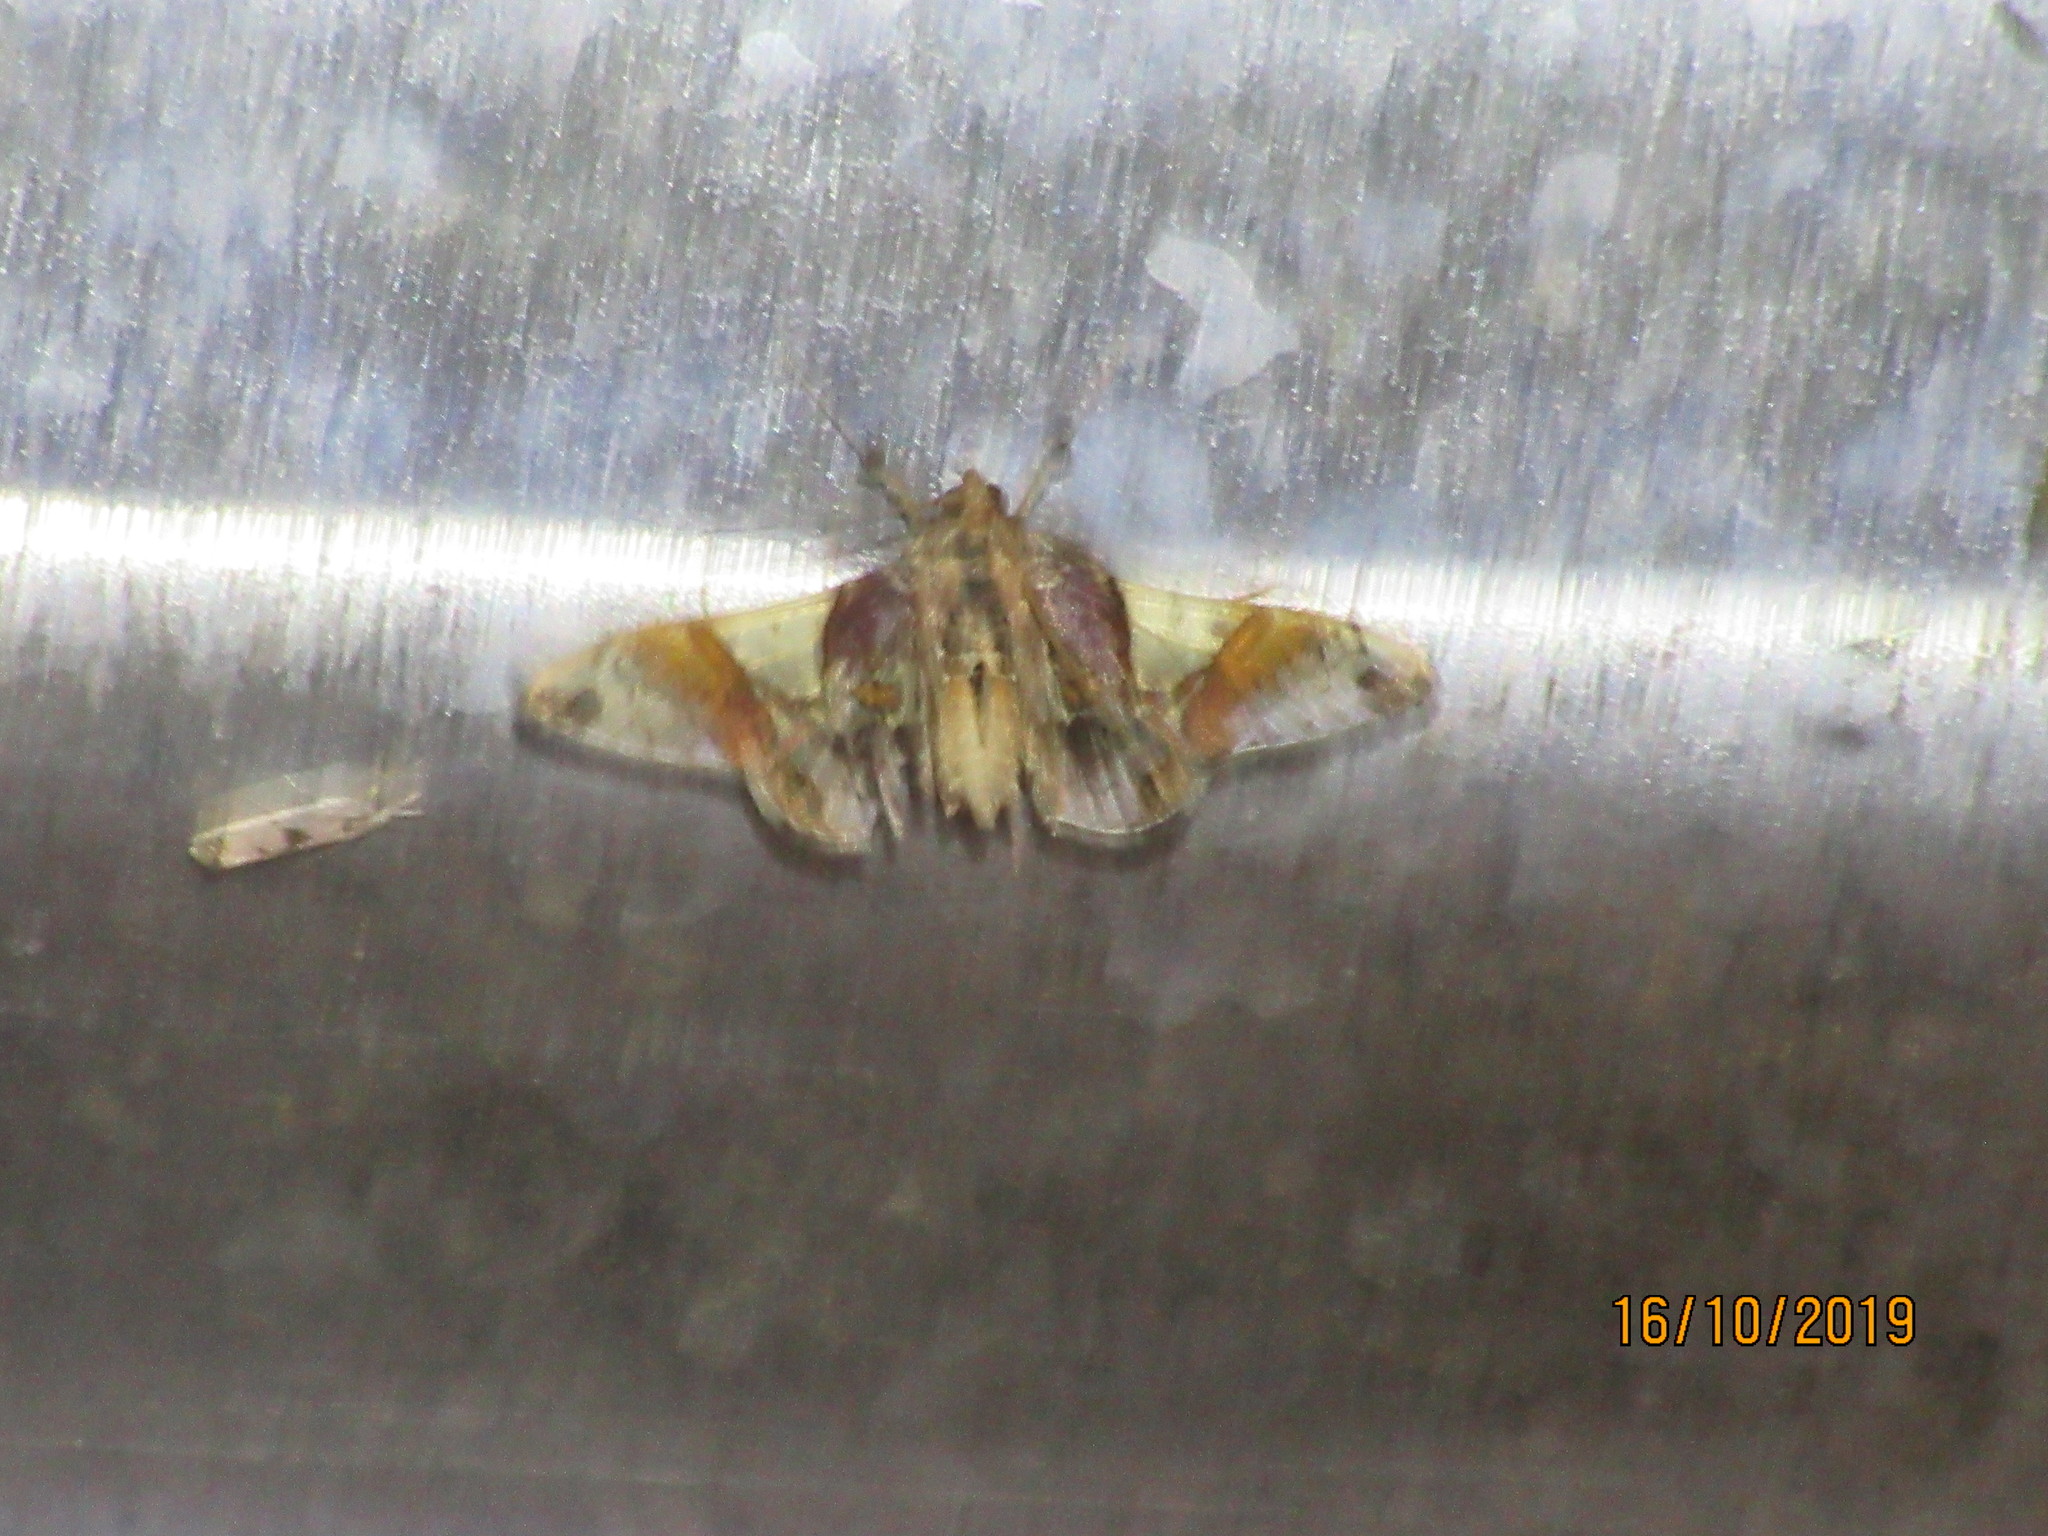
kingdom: Animalia
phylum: Arthropoda
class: Insecta
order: Lepidoptera
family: Crambidae
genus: Syngamilyta
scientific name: Syngamilyta apicolor
